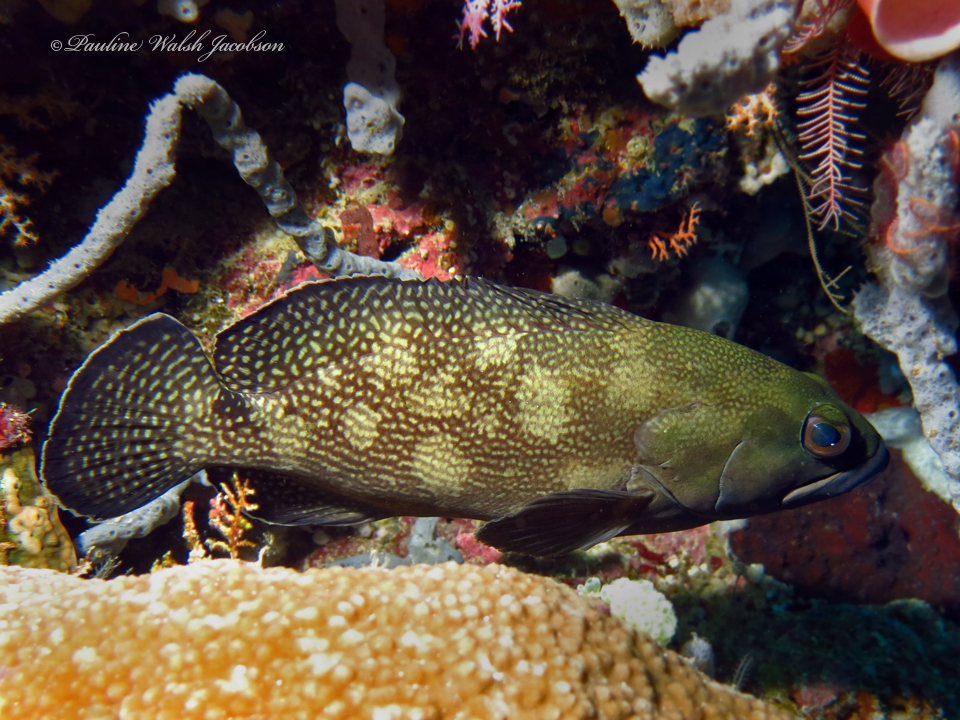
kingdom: Animalia
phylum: Chordata
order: Perciformes
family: Serranidae
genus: Epinephelus
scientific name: Epinephelus ongus
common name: White-streaked grouper
